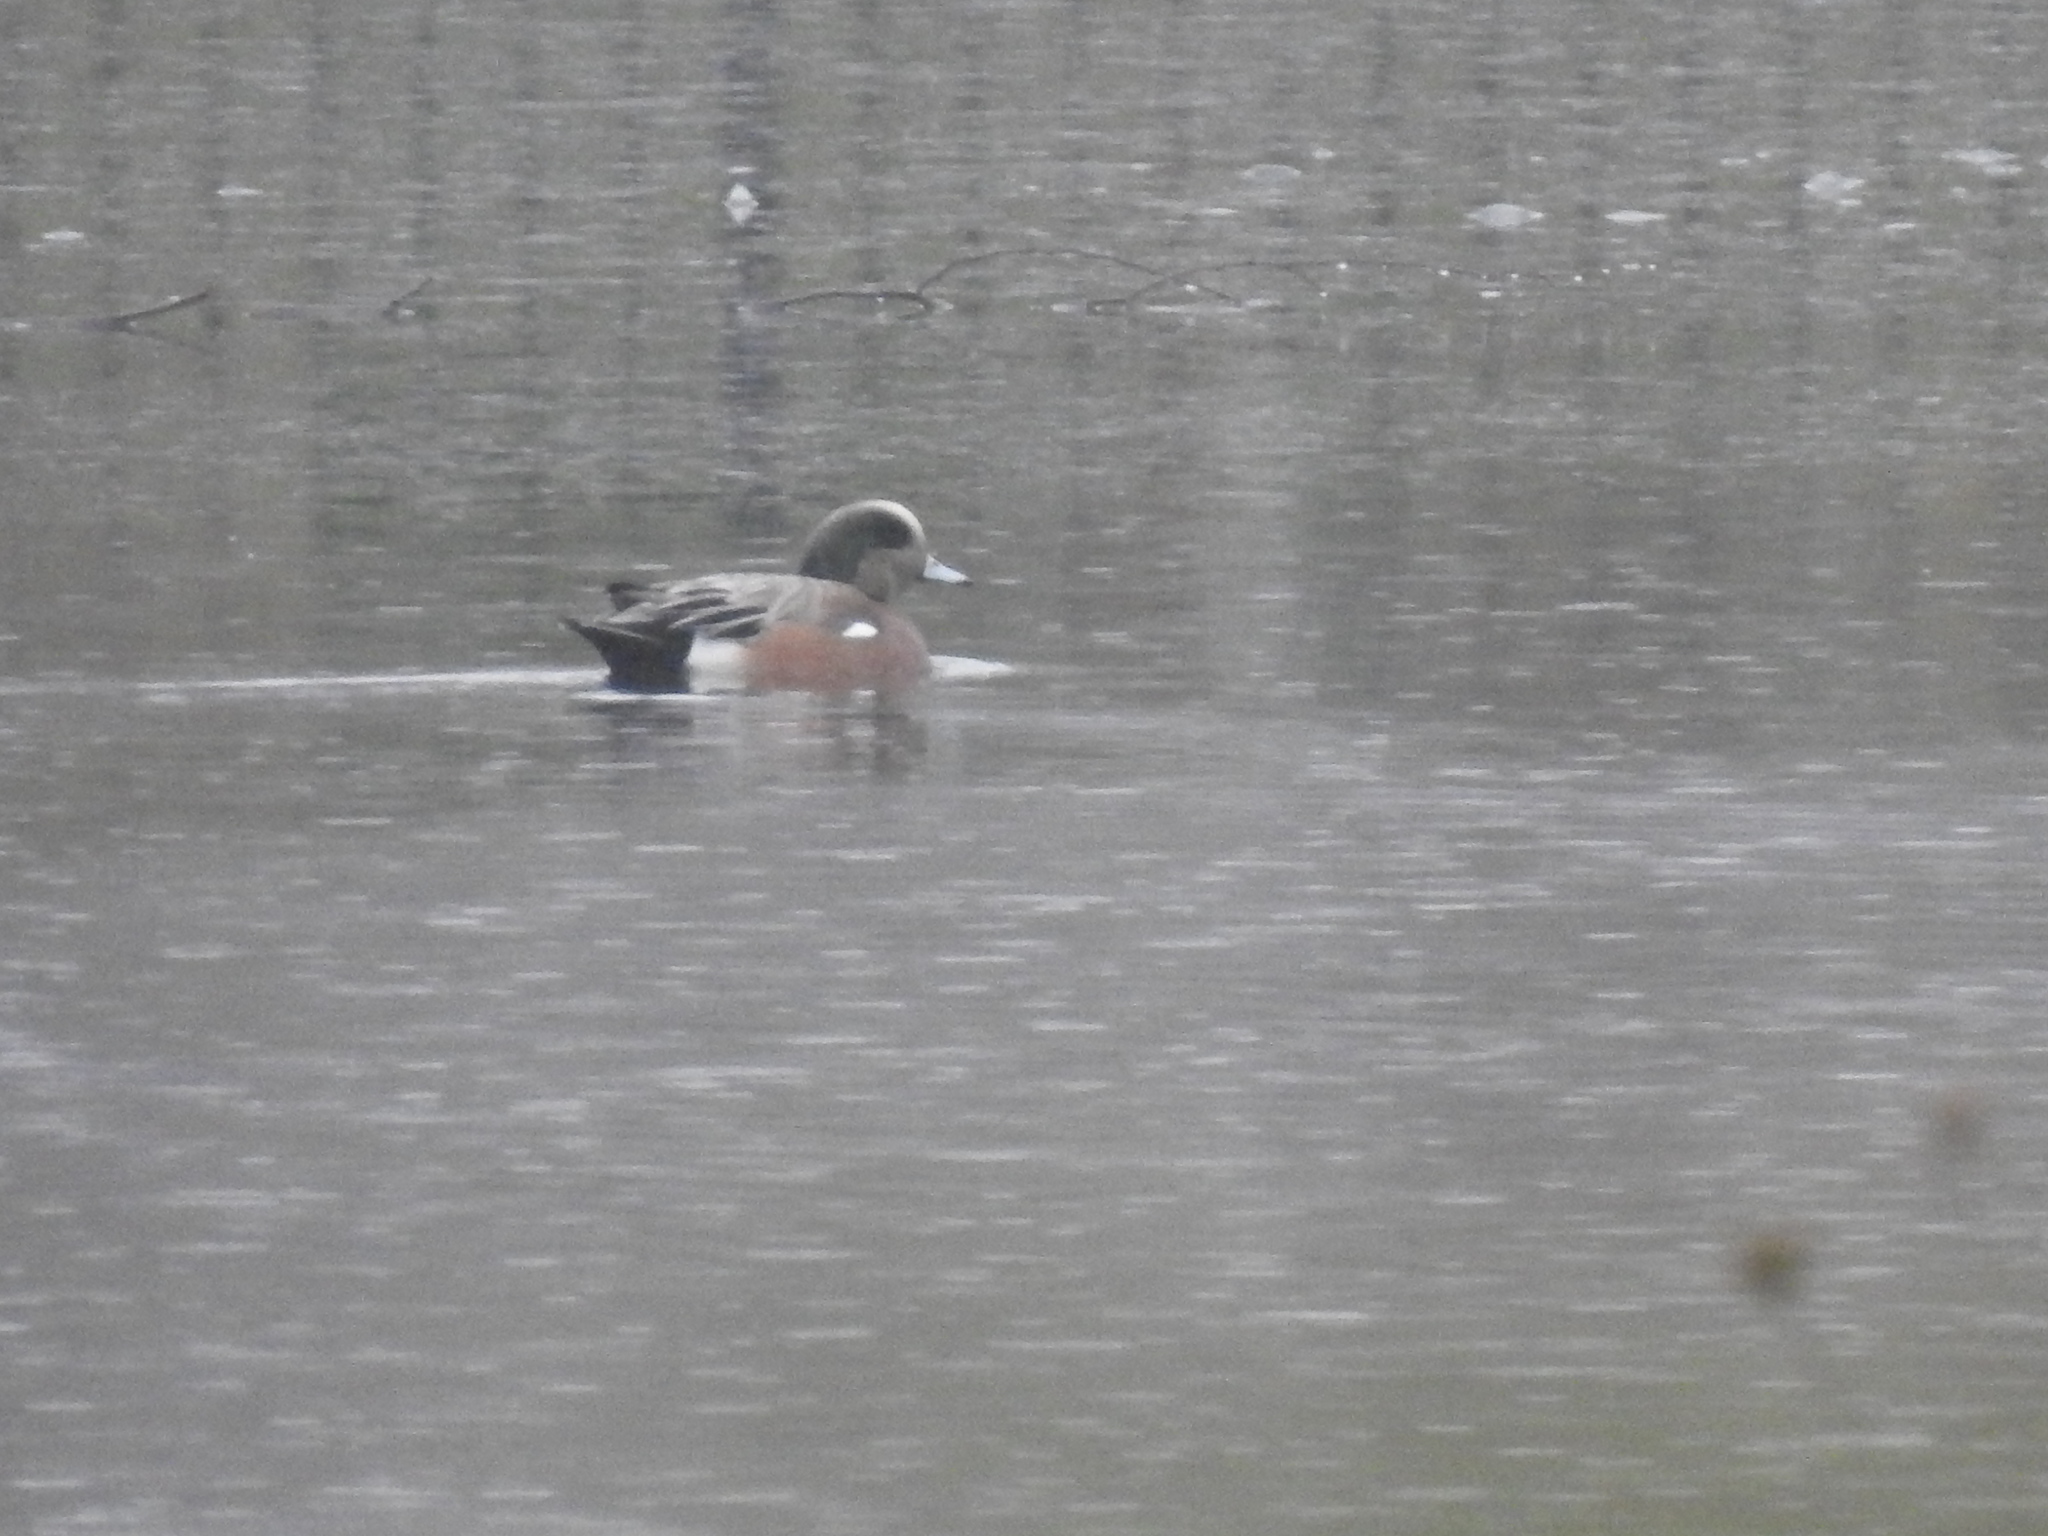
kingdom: Animalia
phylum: Chordata
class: Aves
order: Anseriformes
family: Anatidae
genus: Mareca
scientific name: Mareca americana
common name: American wigeon
